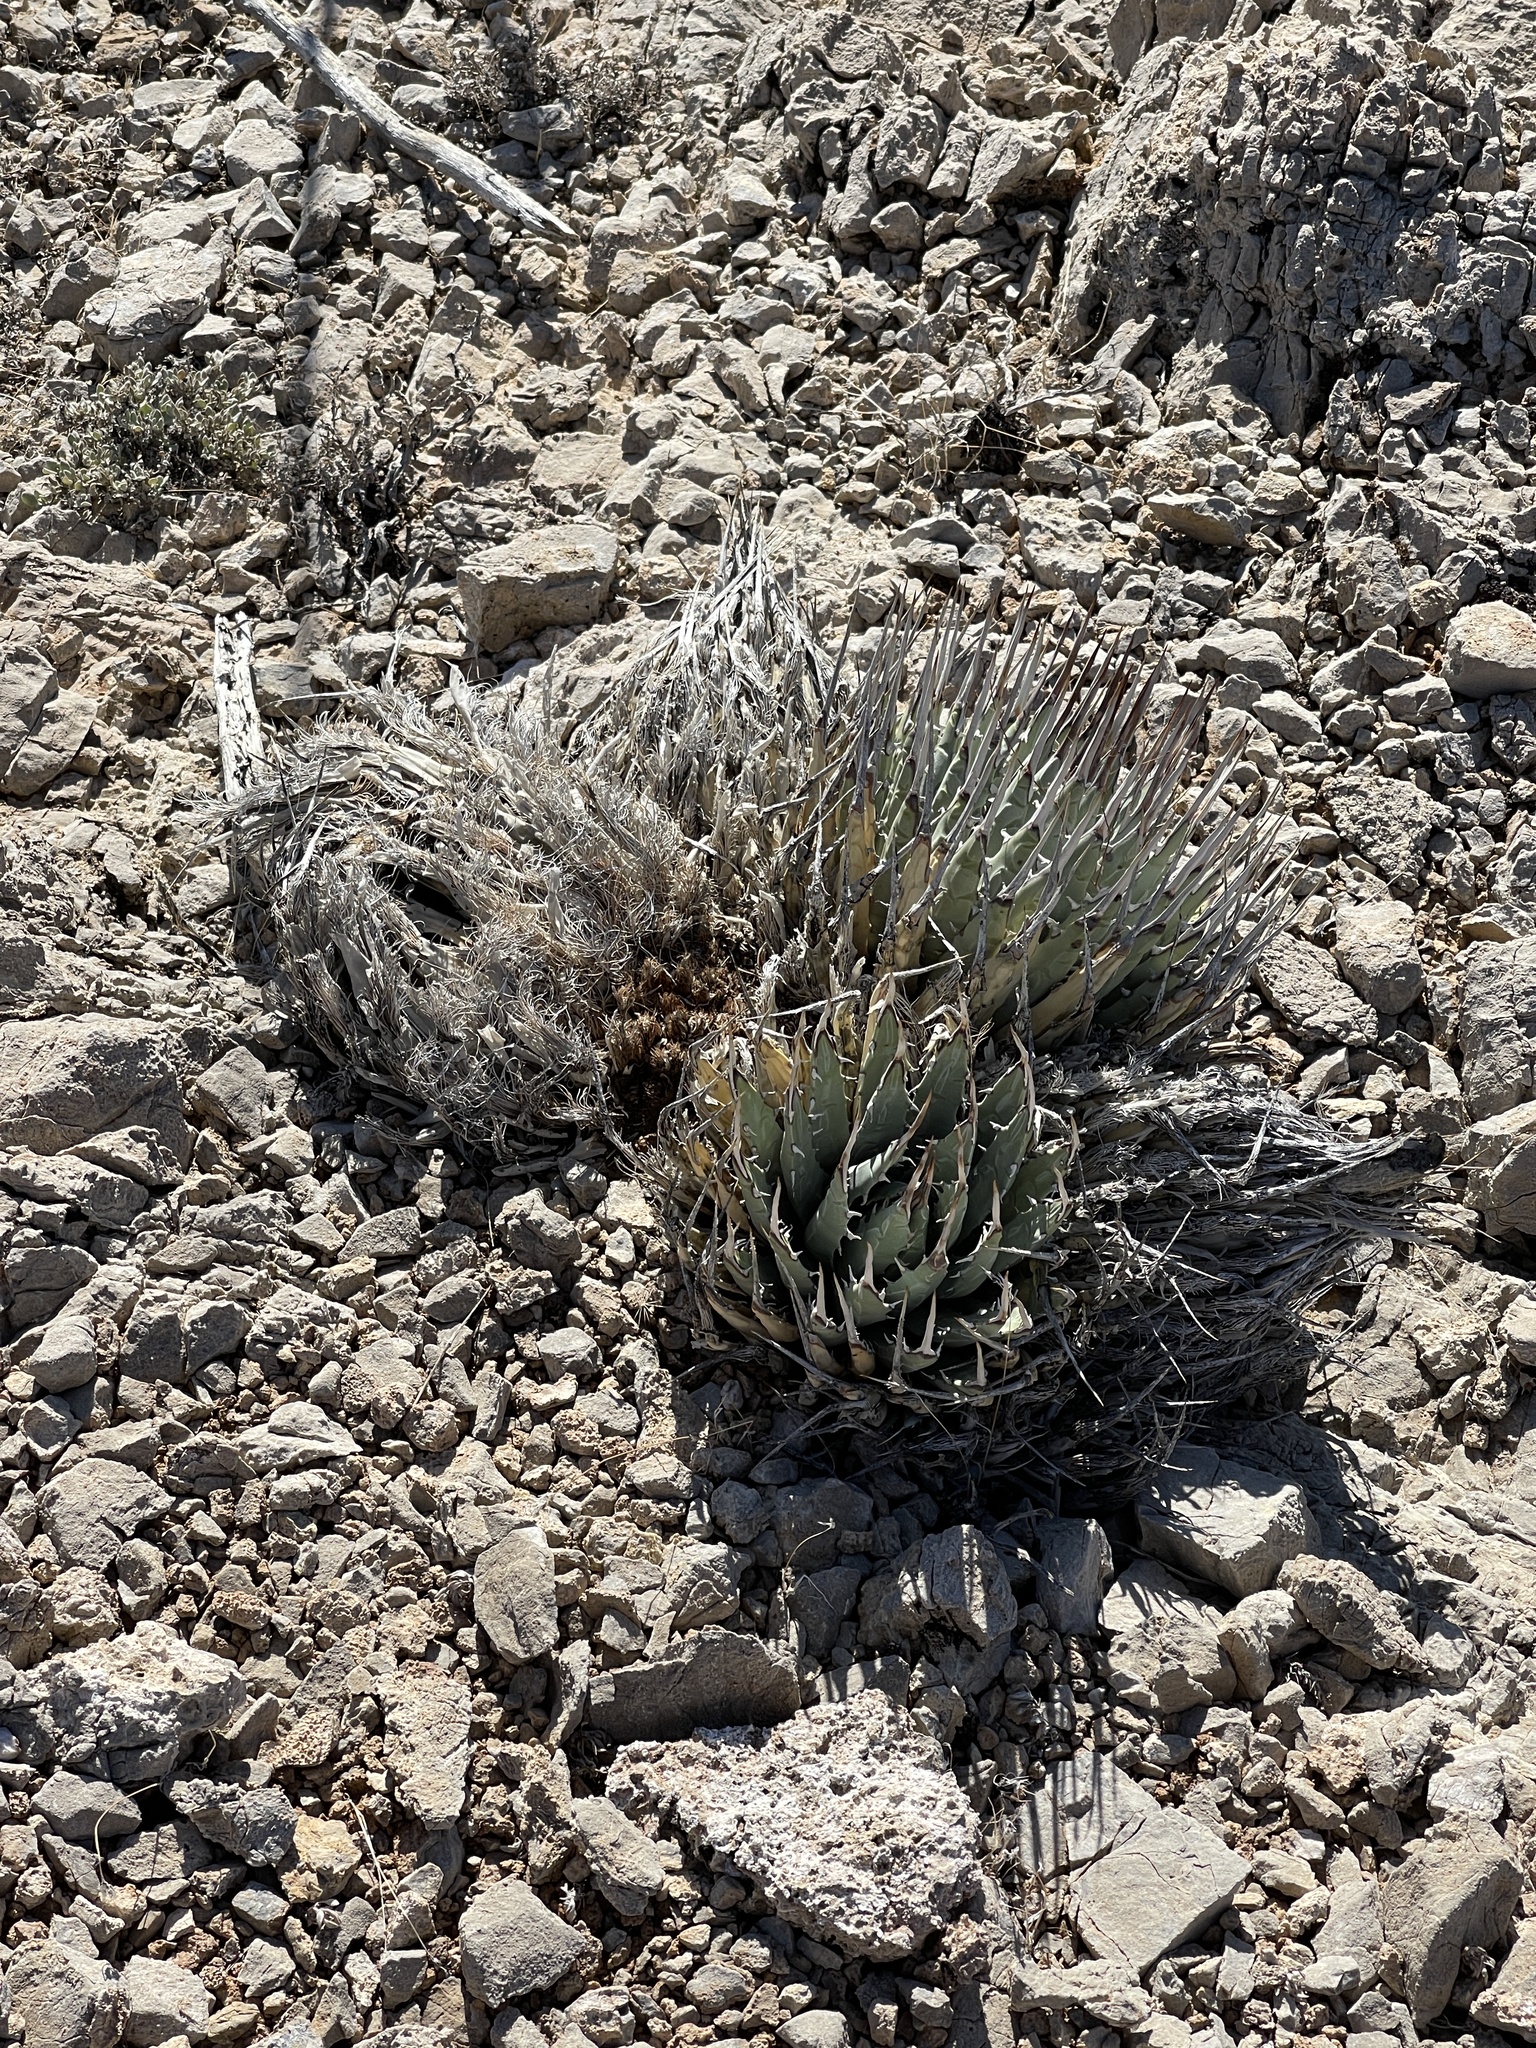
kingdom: Plantae
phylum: Tracheophyta
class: Liliopsida
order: Asparagales
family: Asparagaceae
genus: Agave
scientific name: Agave utahensis
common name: Utah agave
